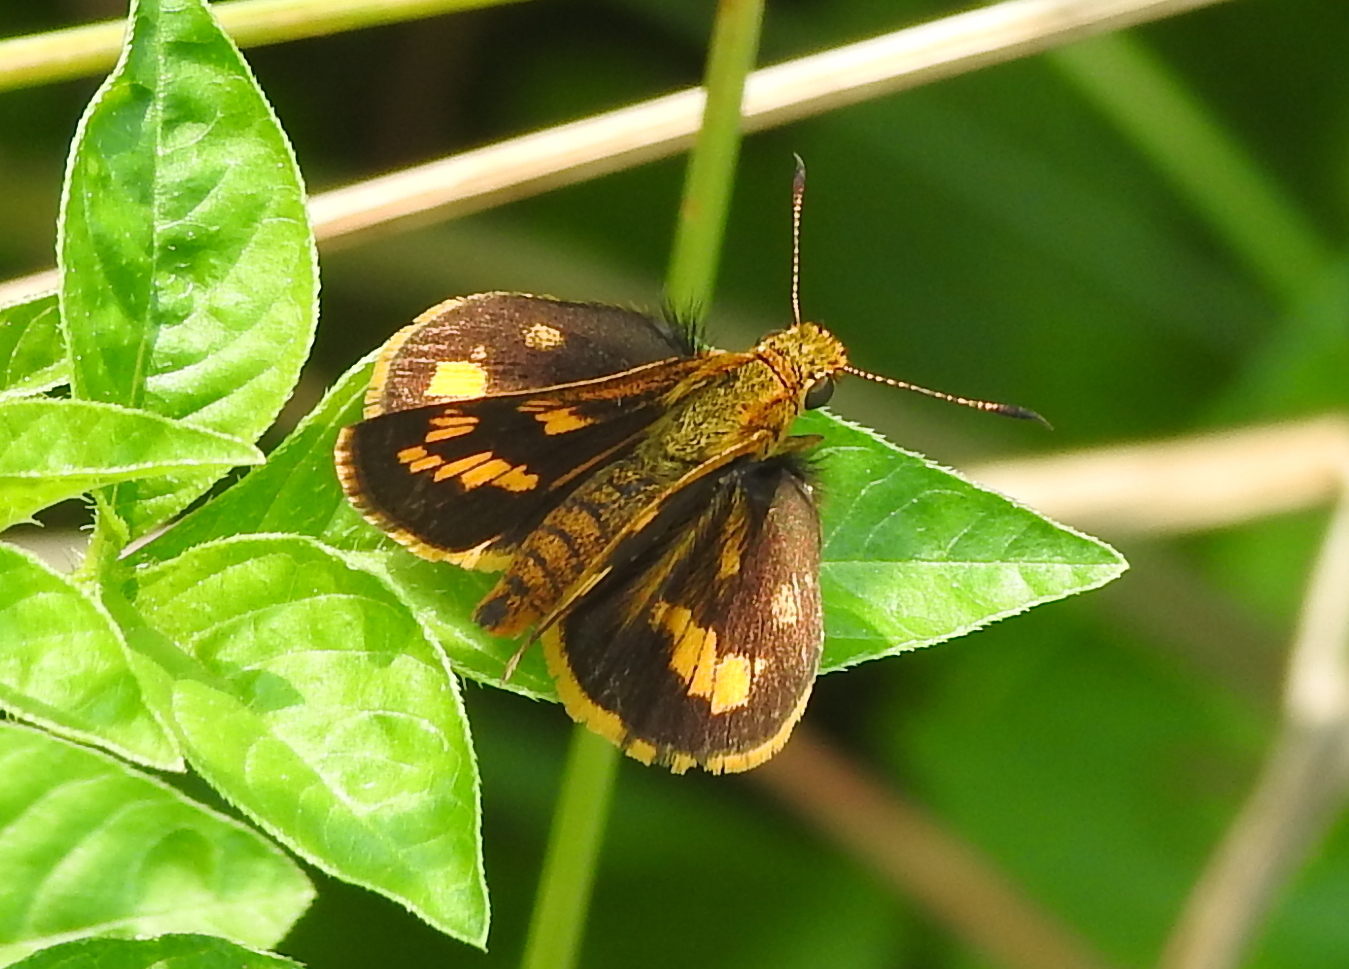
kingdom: Animalia
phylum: Arthropoda
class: Insecta
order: Lepidoptera
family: Hesperiidae
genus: Potanthus
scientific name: Potanthus omaha
